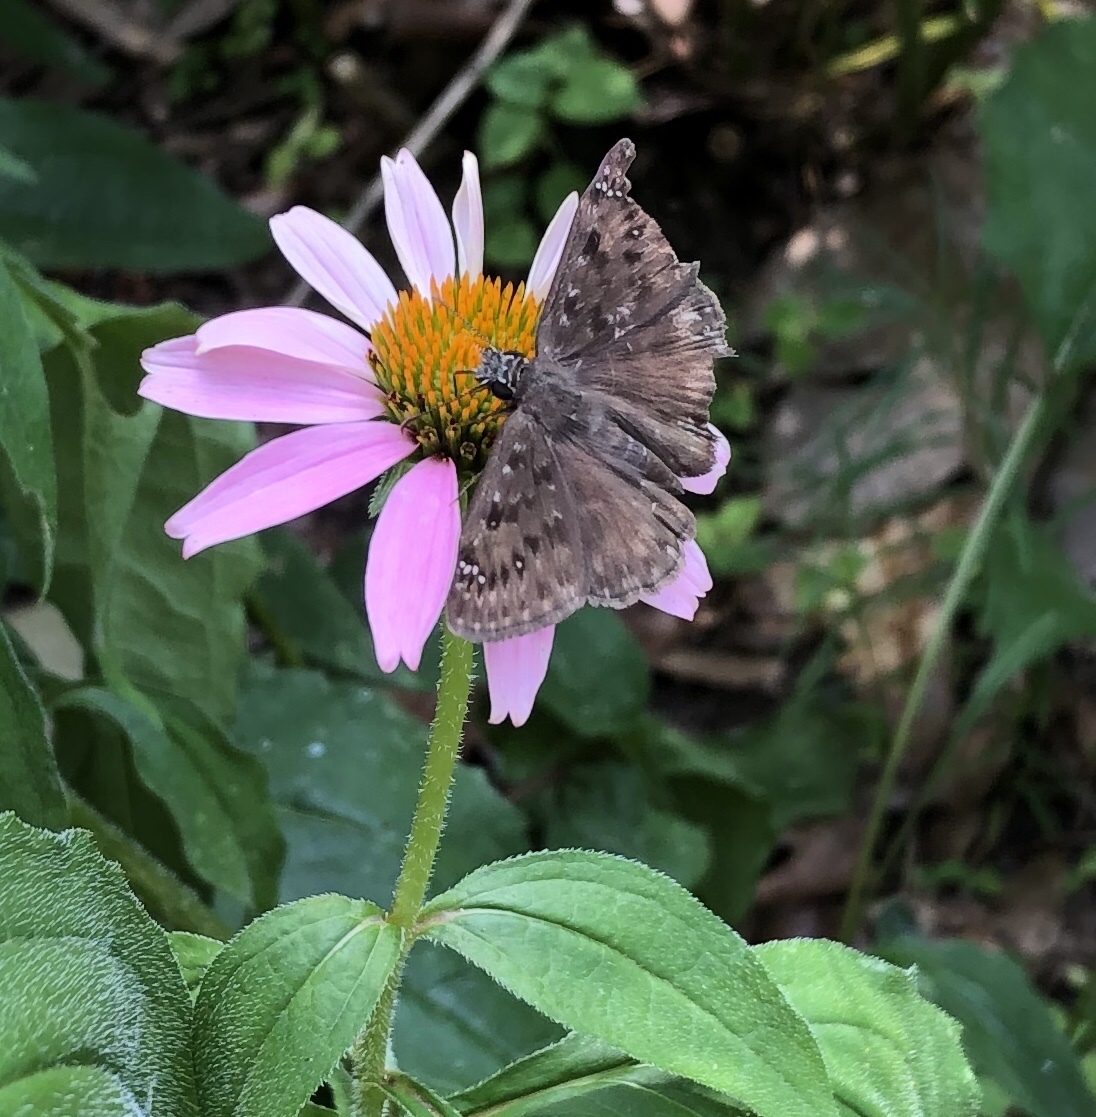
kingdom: Animalia
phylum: Arthropoda
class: Insecta
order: Lepidoptera
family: Hesperiidae
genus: Erynnis
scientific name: Erynnis horatius
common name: Horace's duskywing
